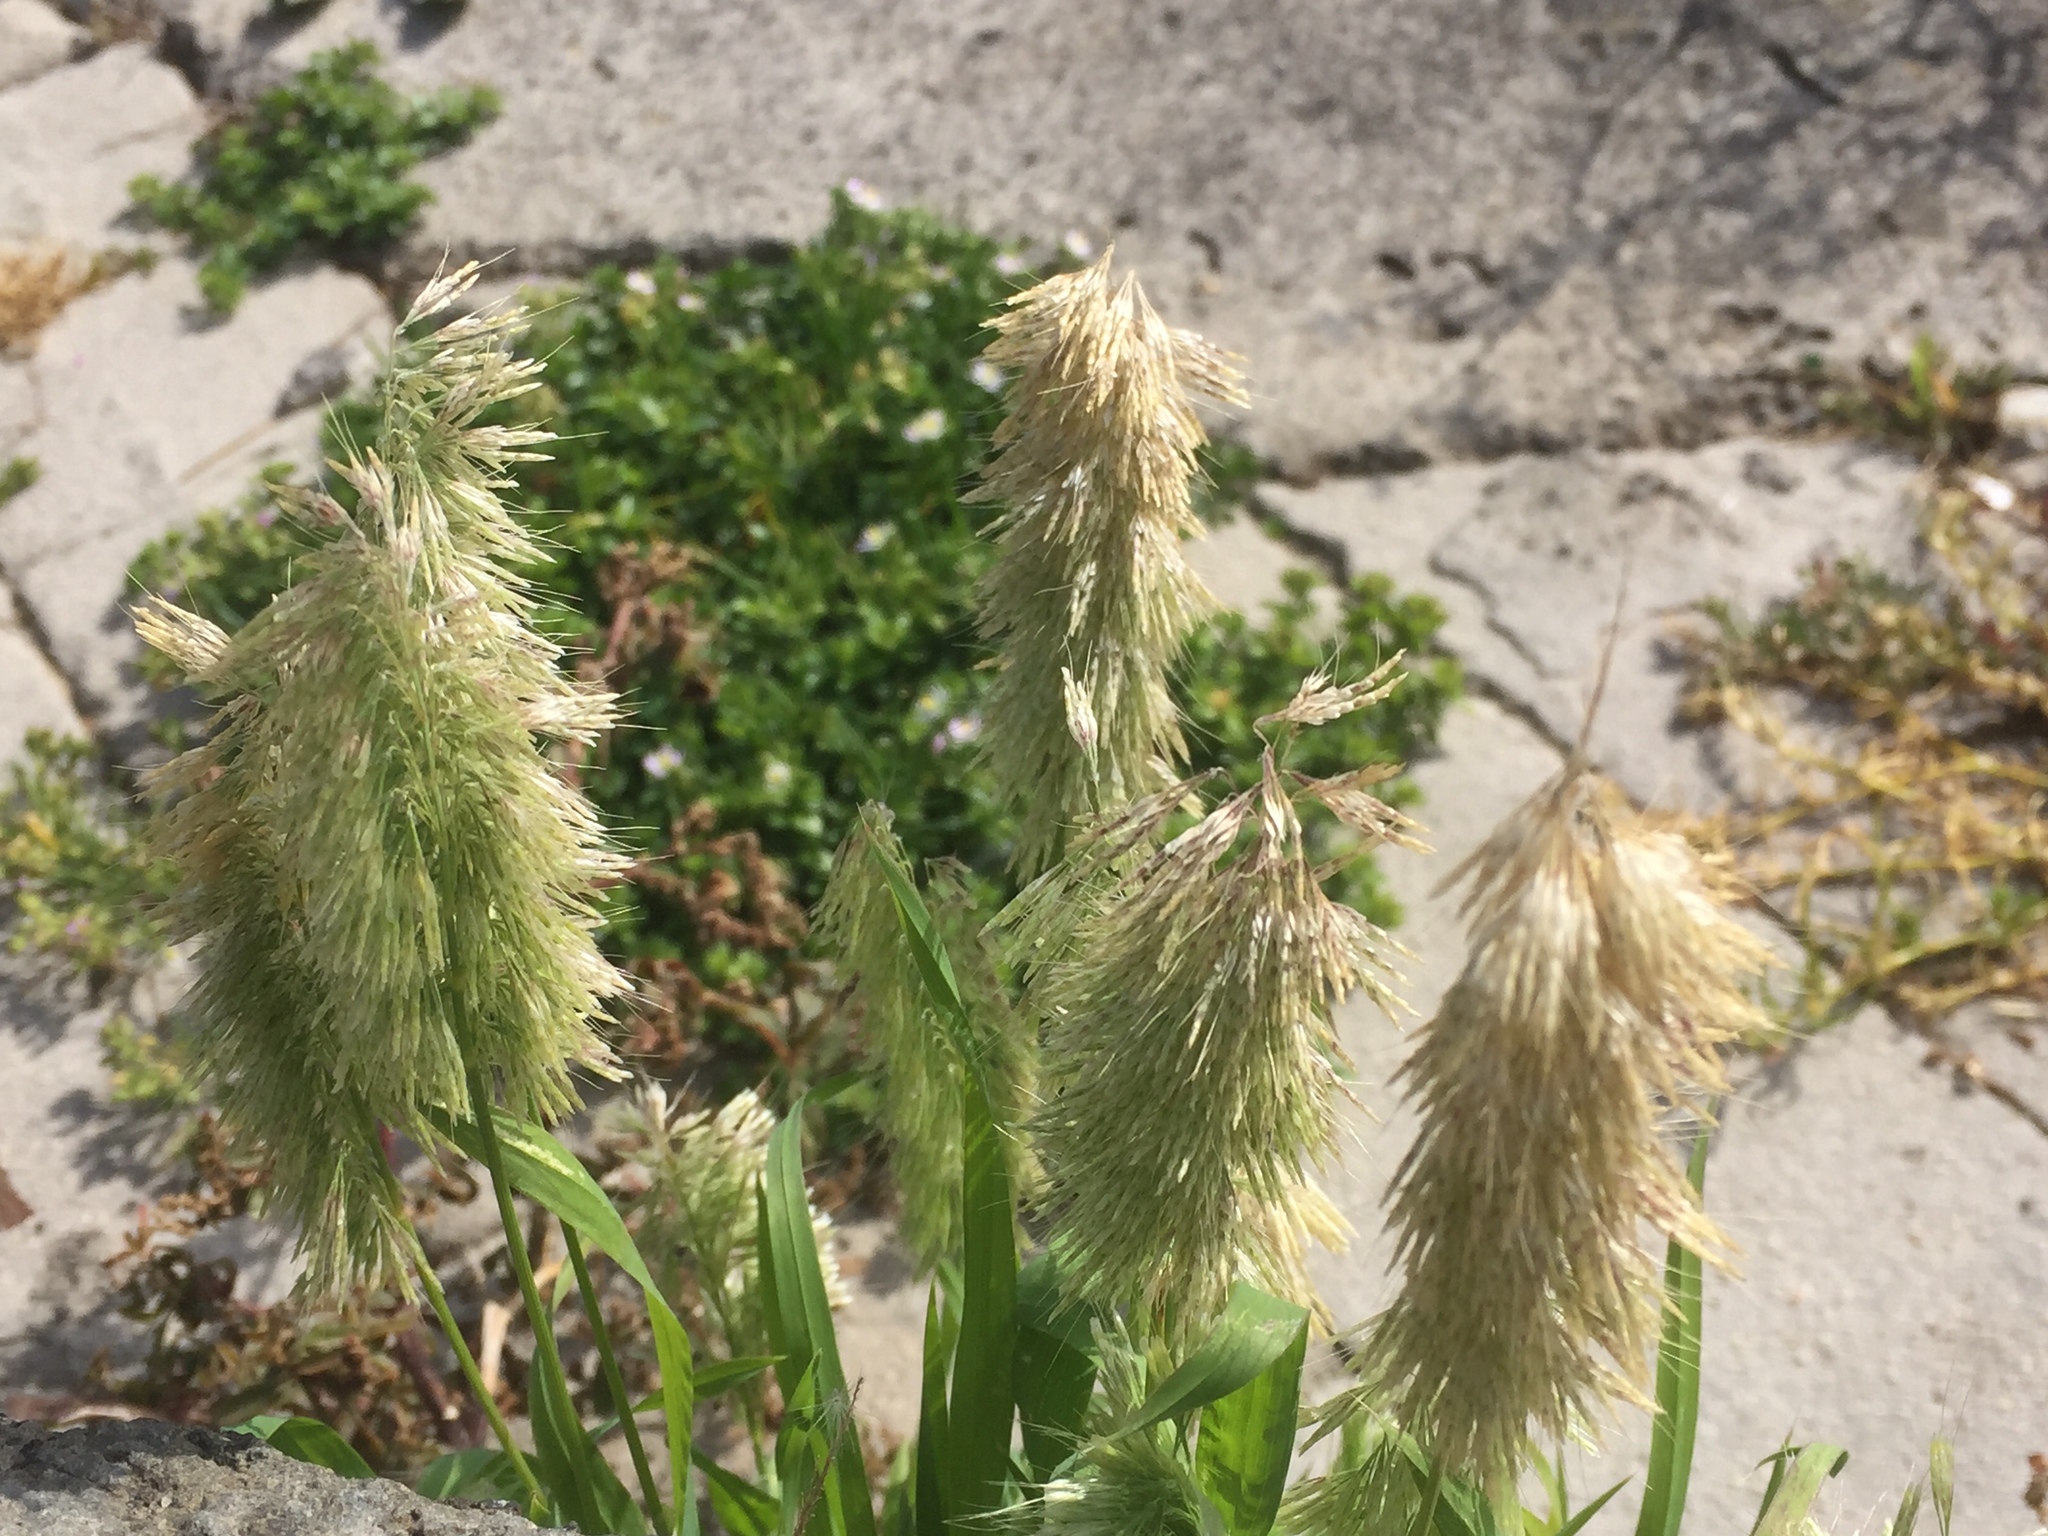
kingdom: Plantae
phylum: Tracheophyta
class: Liliopsida
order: Poales
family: Poaceae
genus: Lamarckia
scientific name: Lamarckia aurea
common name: Golden dog's-tail
